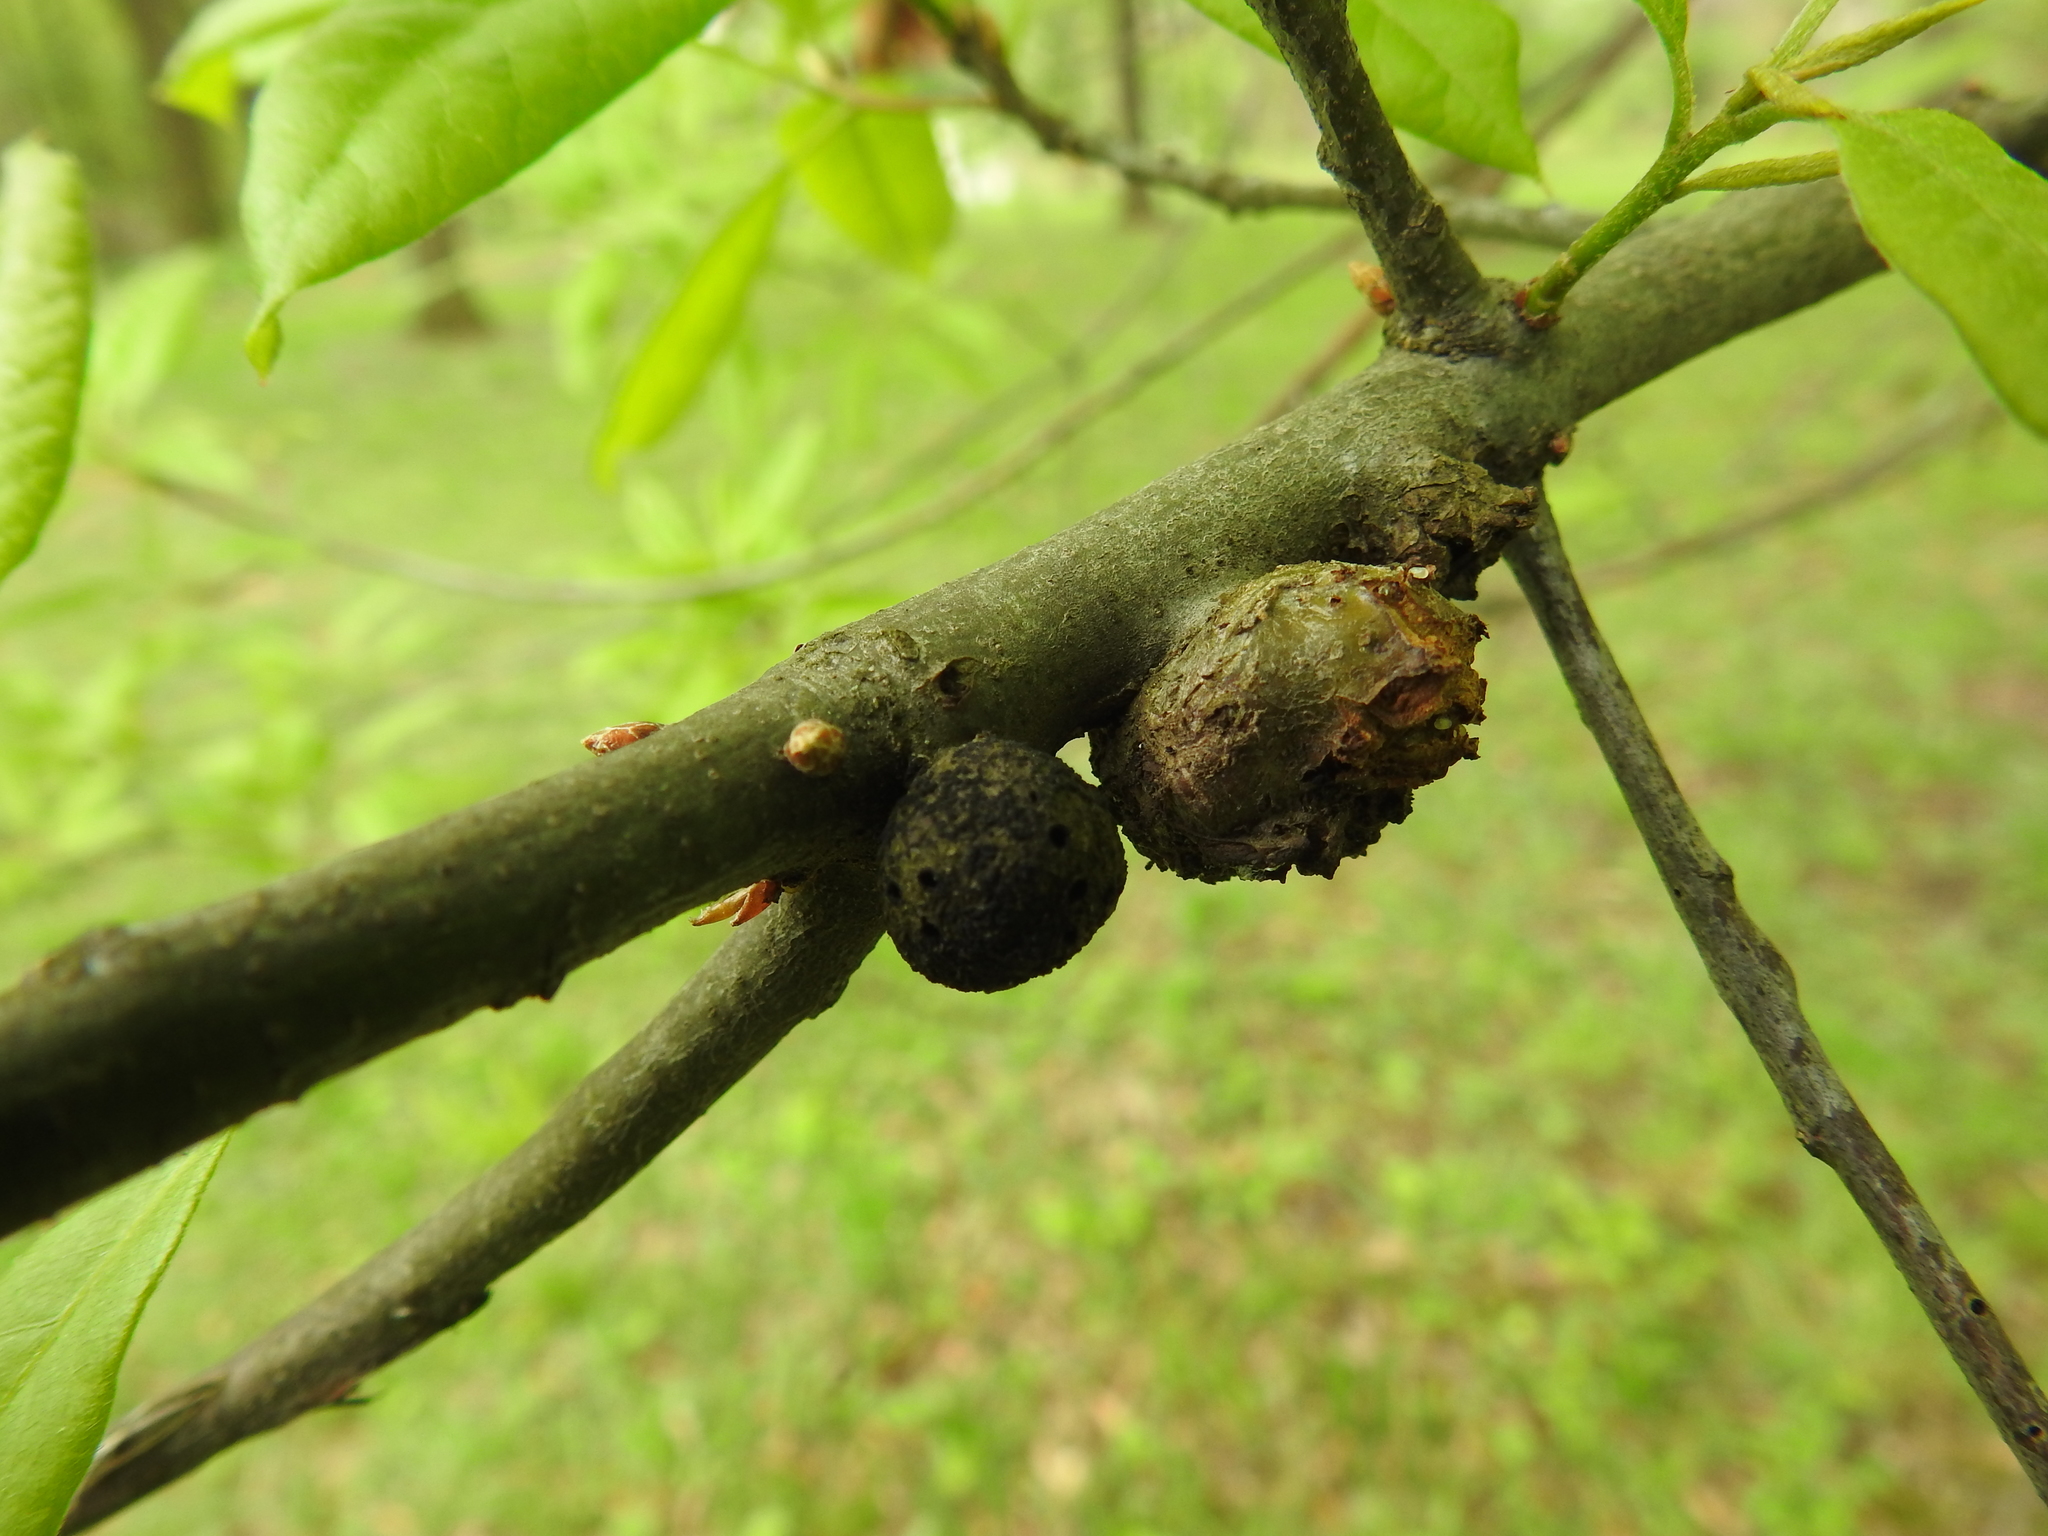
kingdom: Animalia
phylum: Arthropoda
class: Insecta
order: Hymenoptera
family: Cynipidae
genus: Synergus
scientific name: Synergus lignicola
